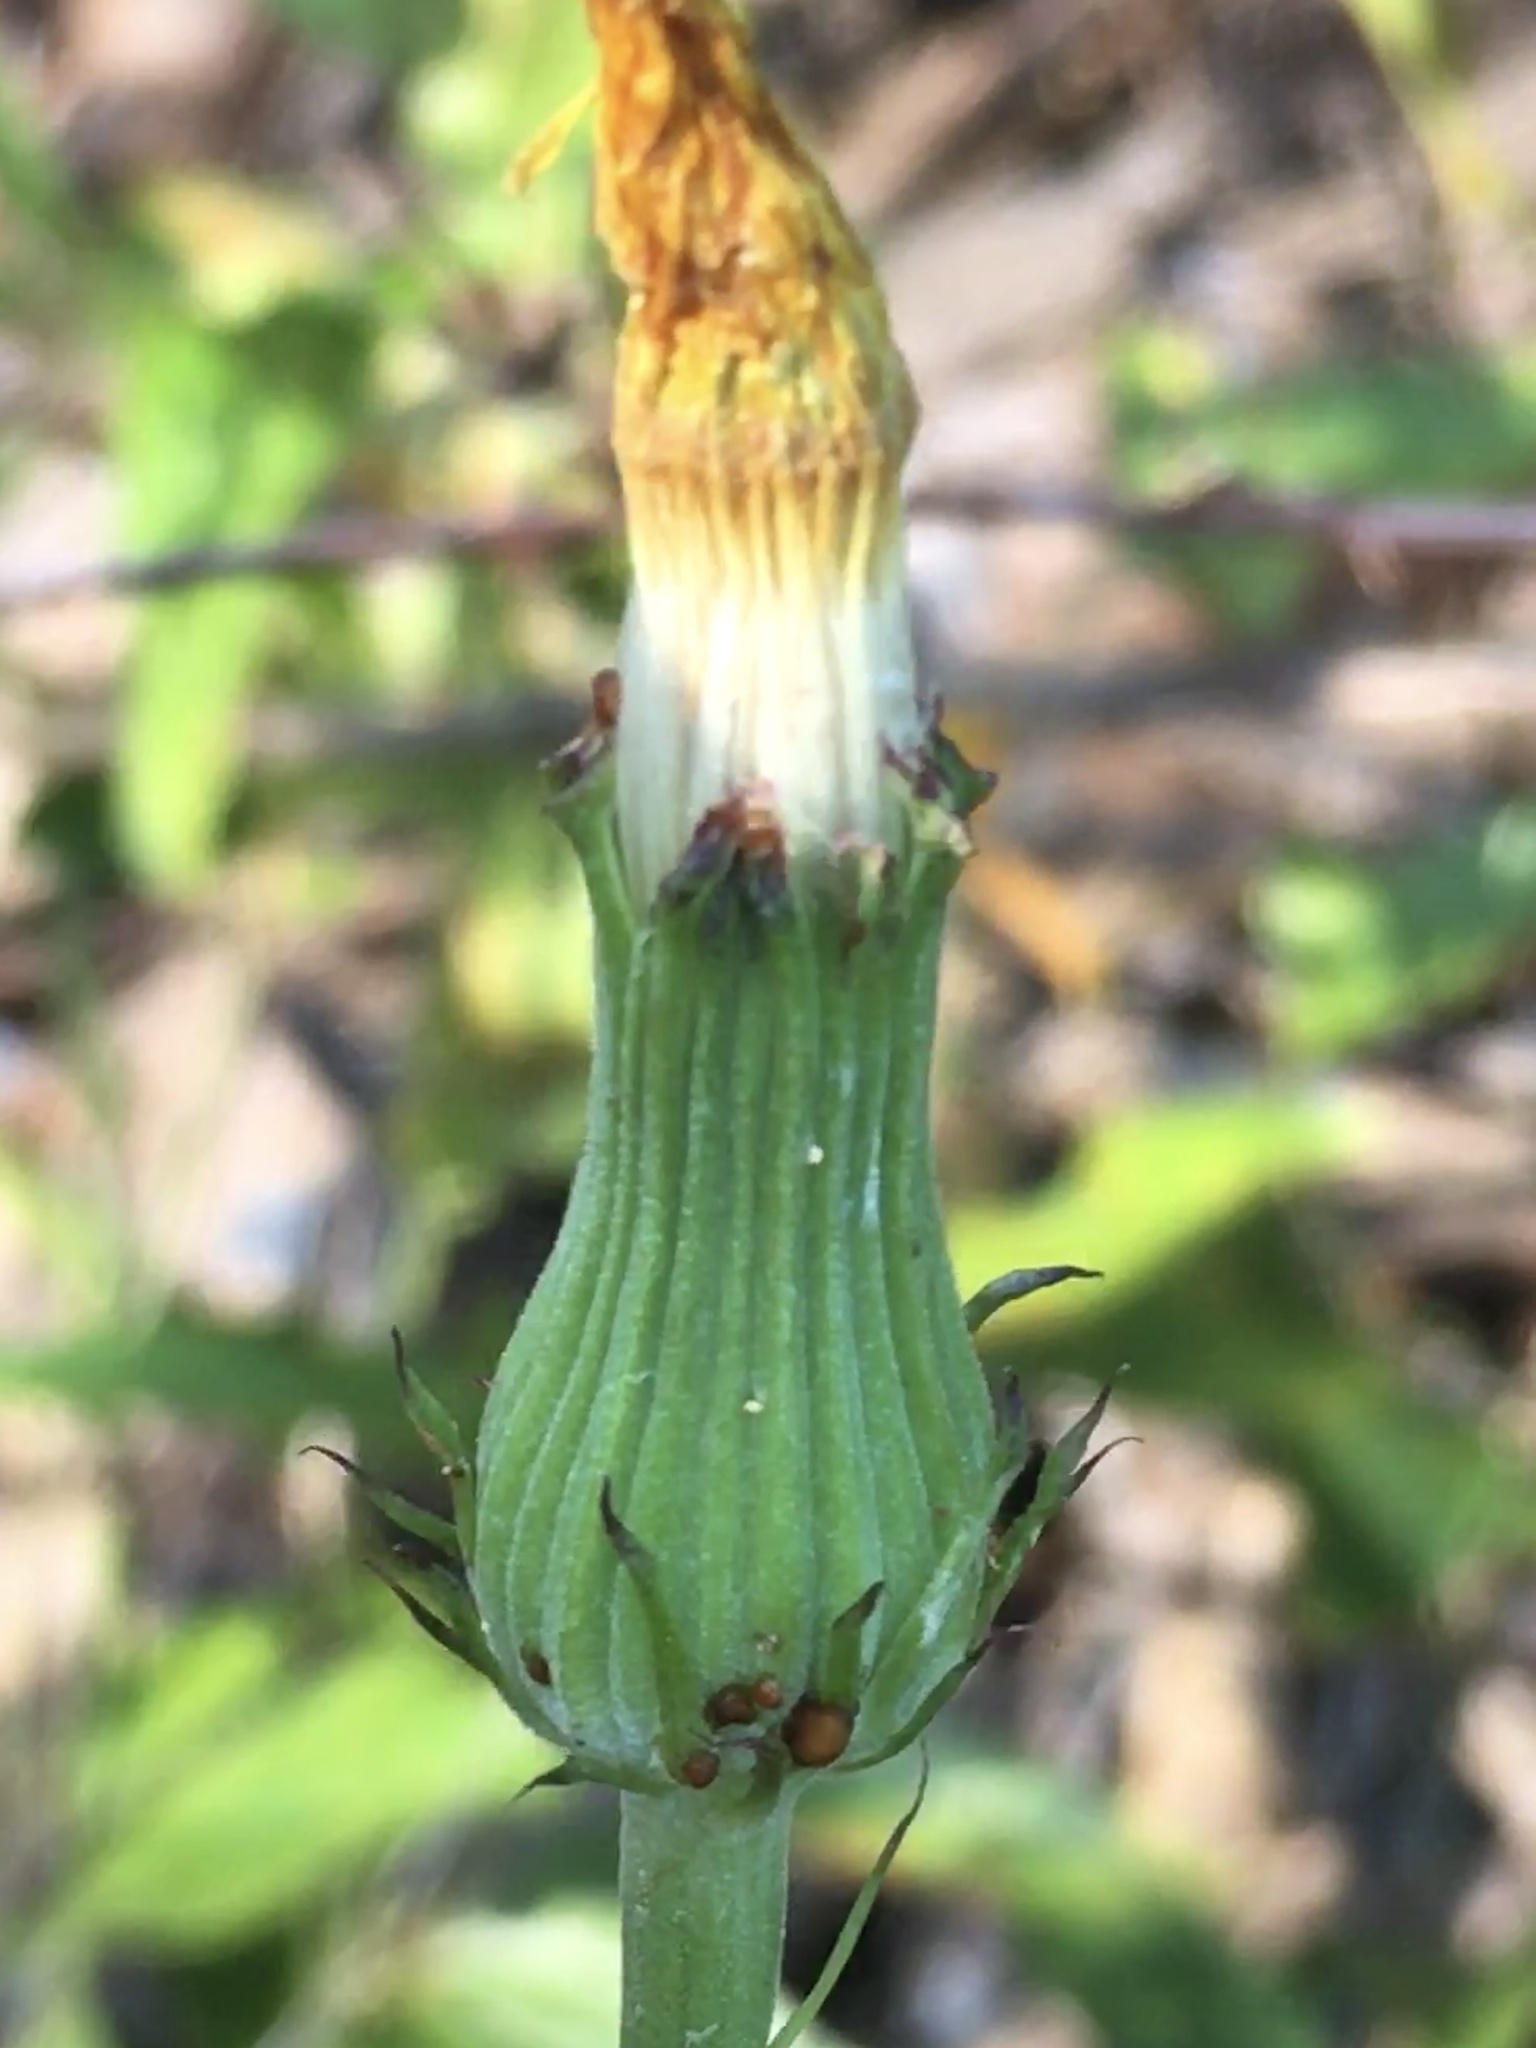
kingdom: Plantae
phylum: Tracheophyta
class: Magnoliopsida
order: Asterales
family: Asteraceae
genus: Pyrrhopappus
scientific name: Pyrrhopappus carolinianus
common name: Carolina desert-chicory
